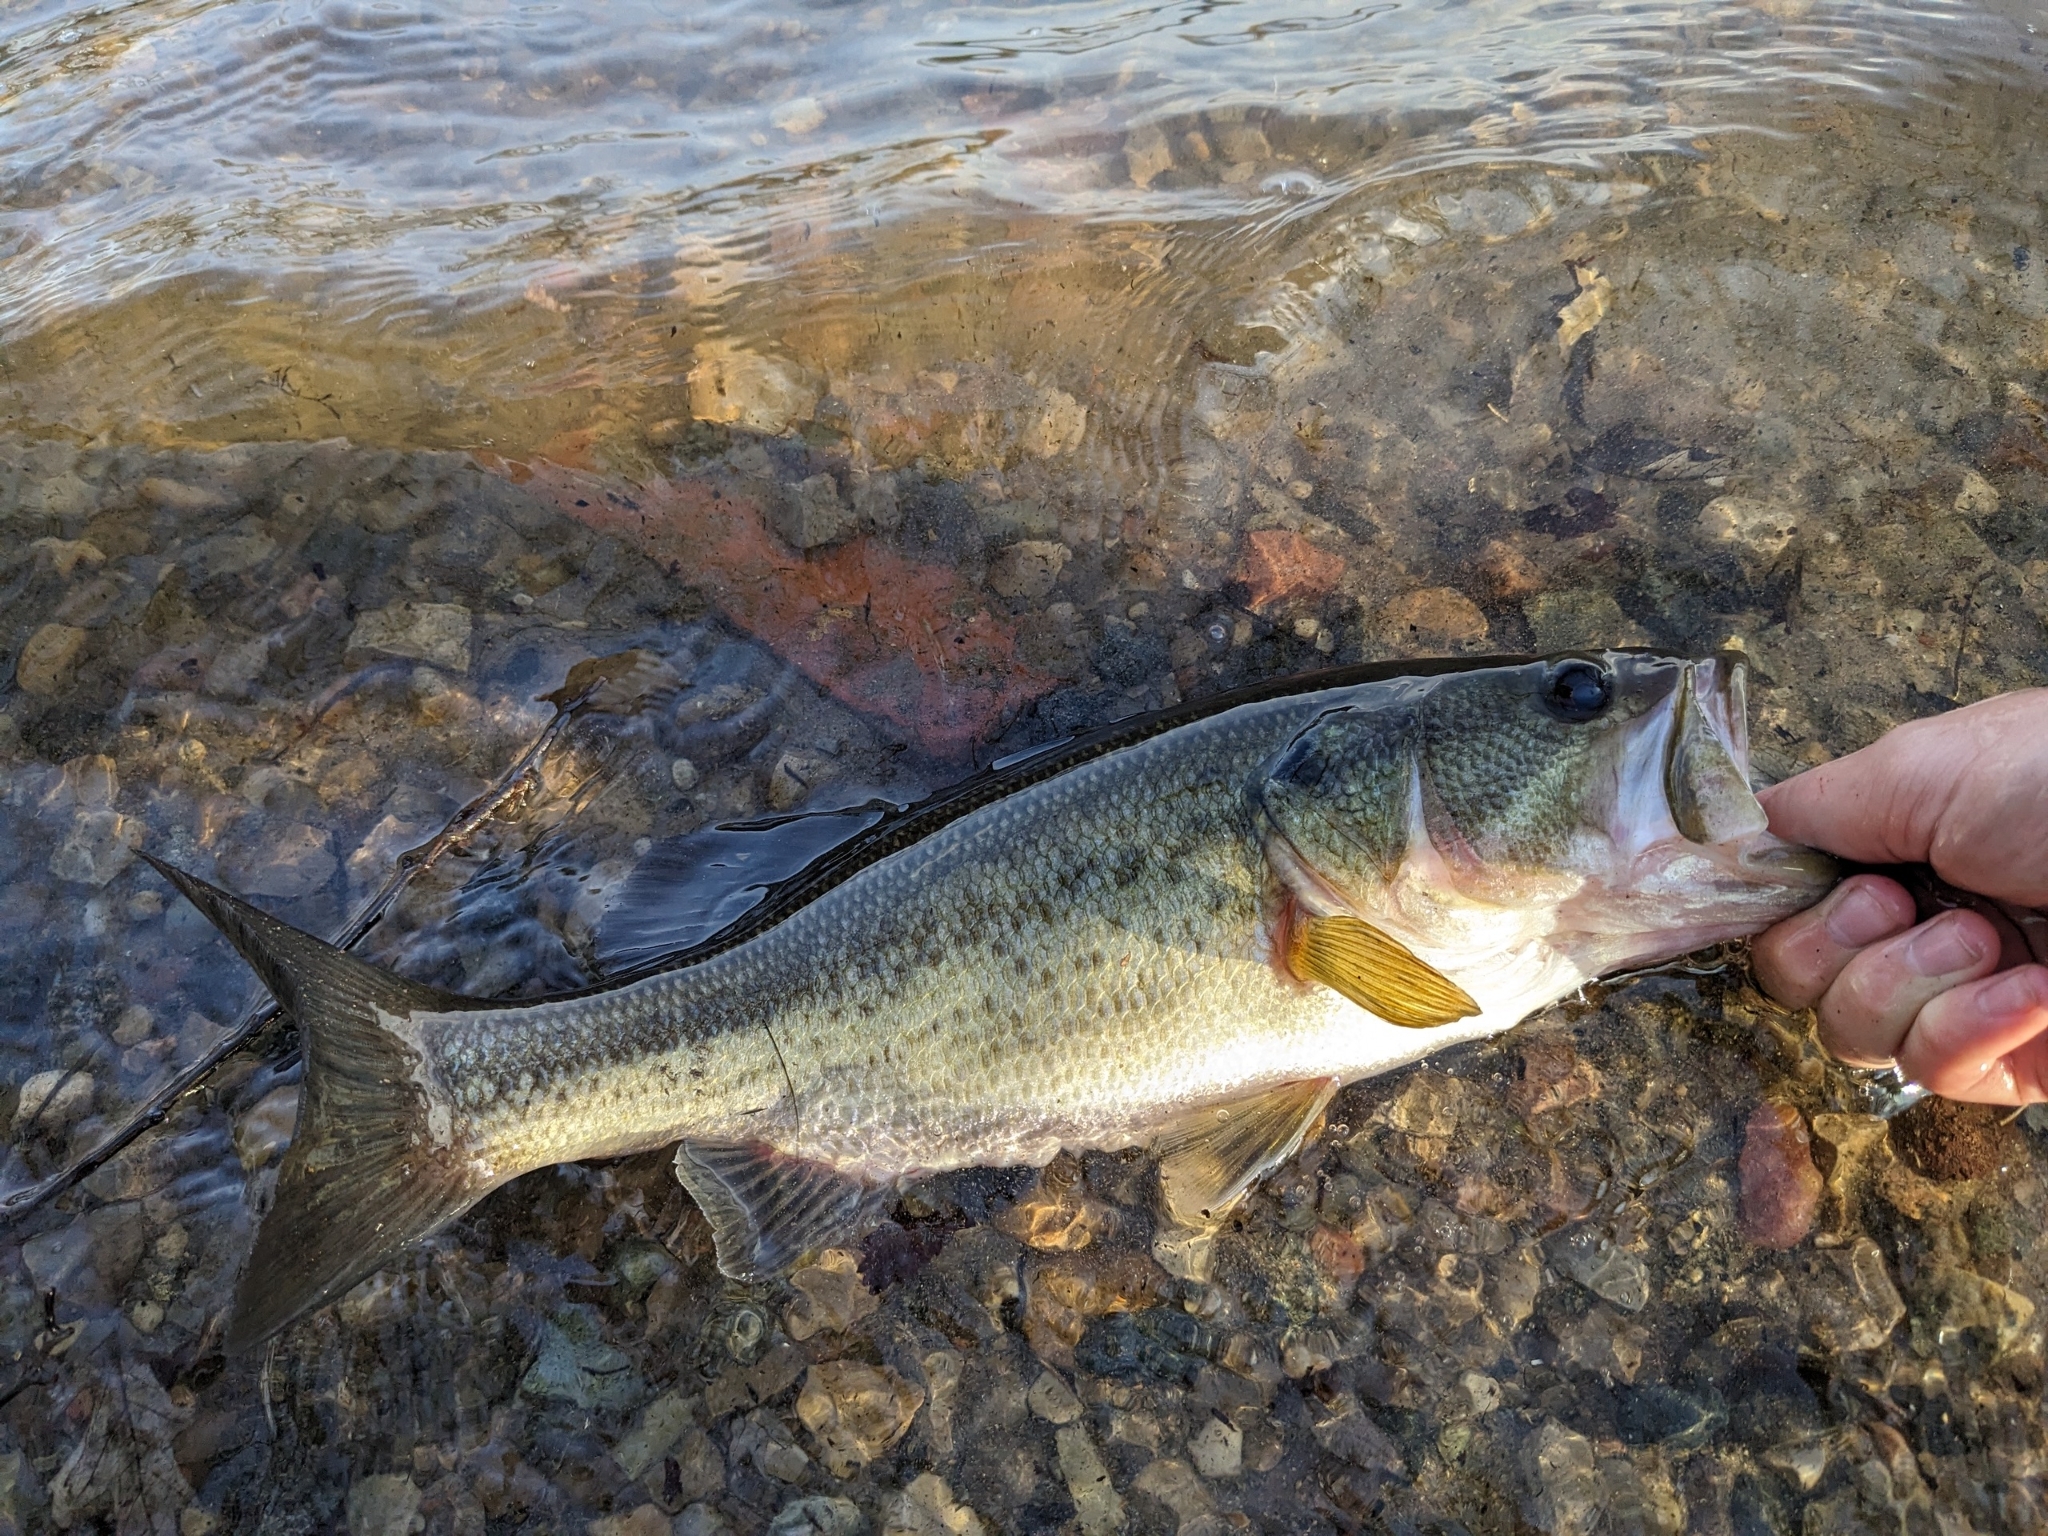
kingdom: Animalia
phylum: Chordata
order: Perciformes
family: Centrarchidae
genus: Micropterus
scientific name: Micropterus
